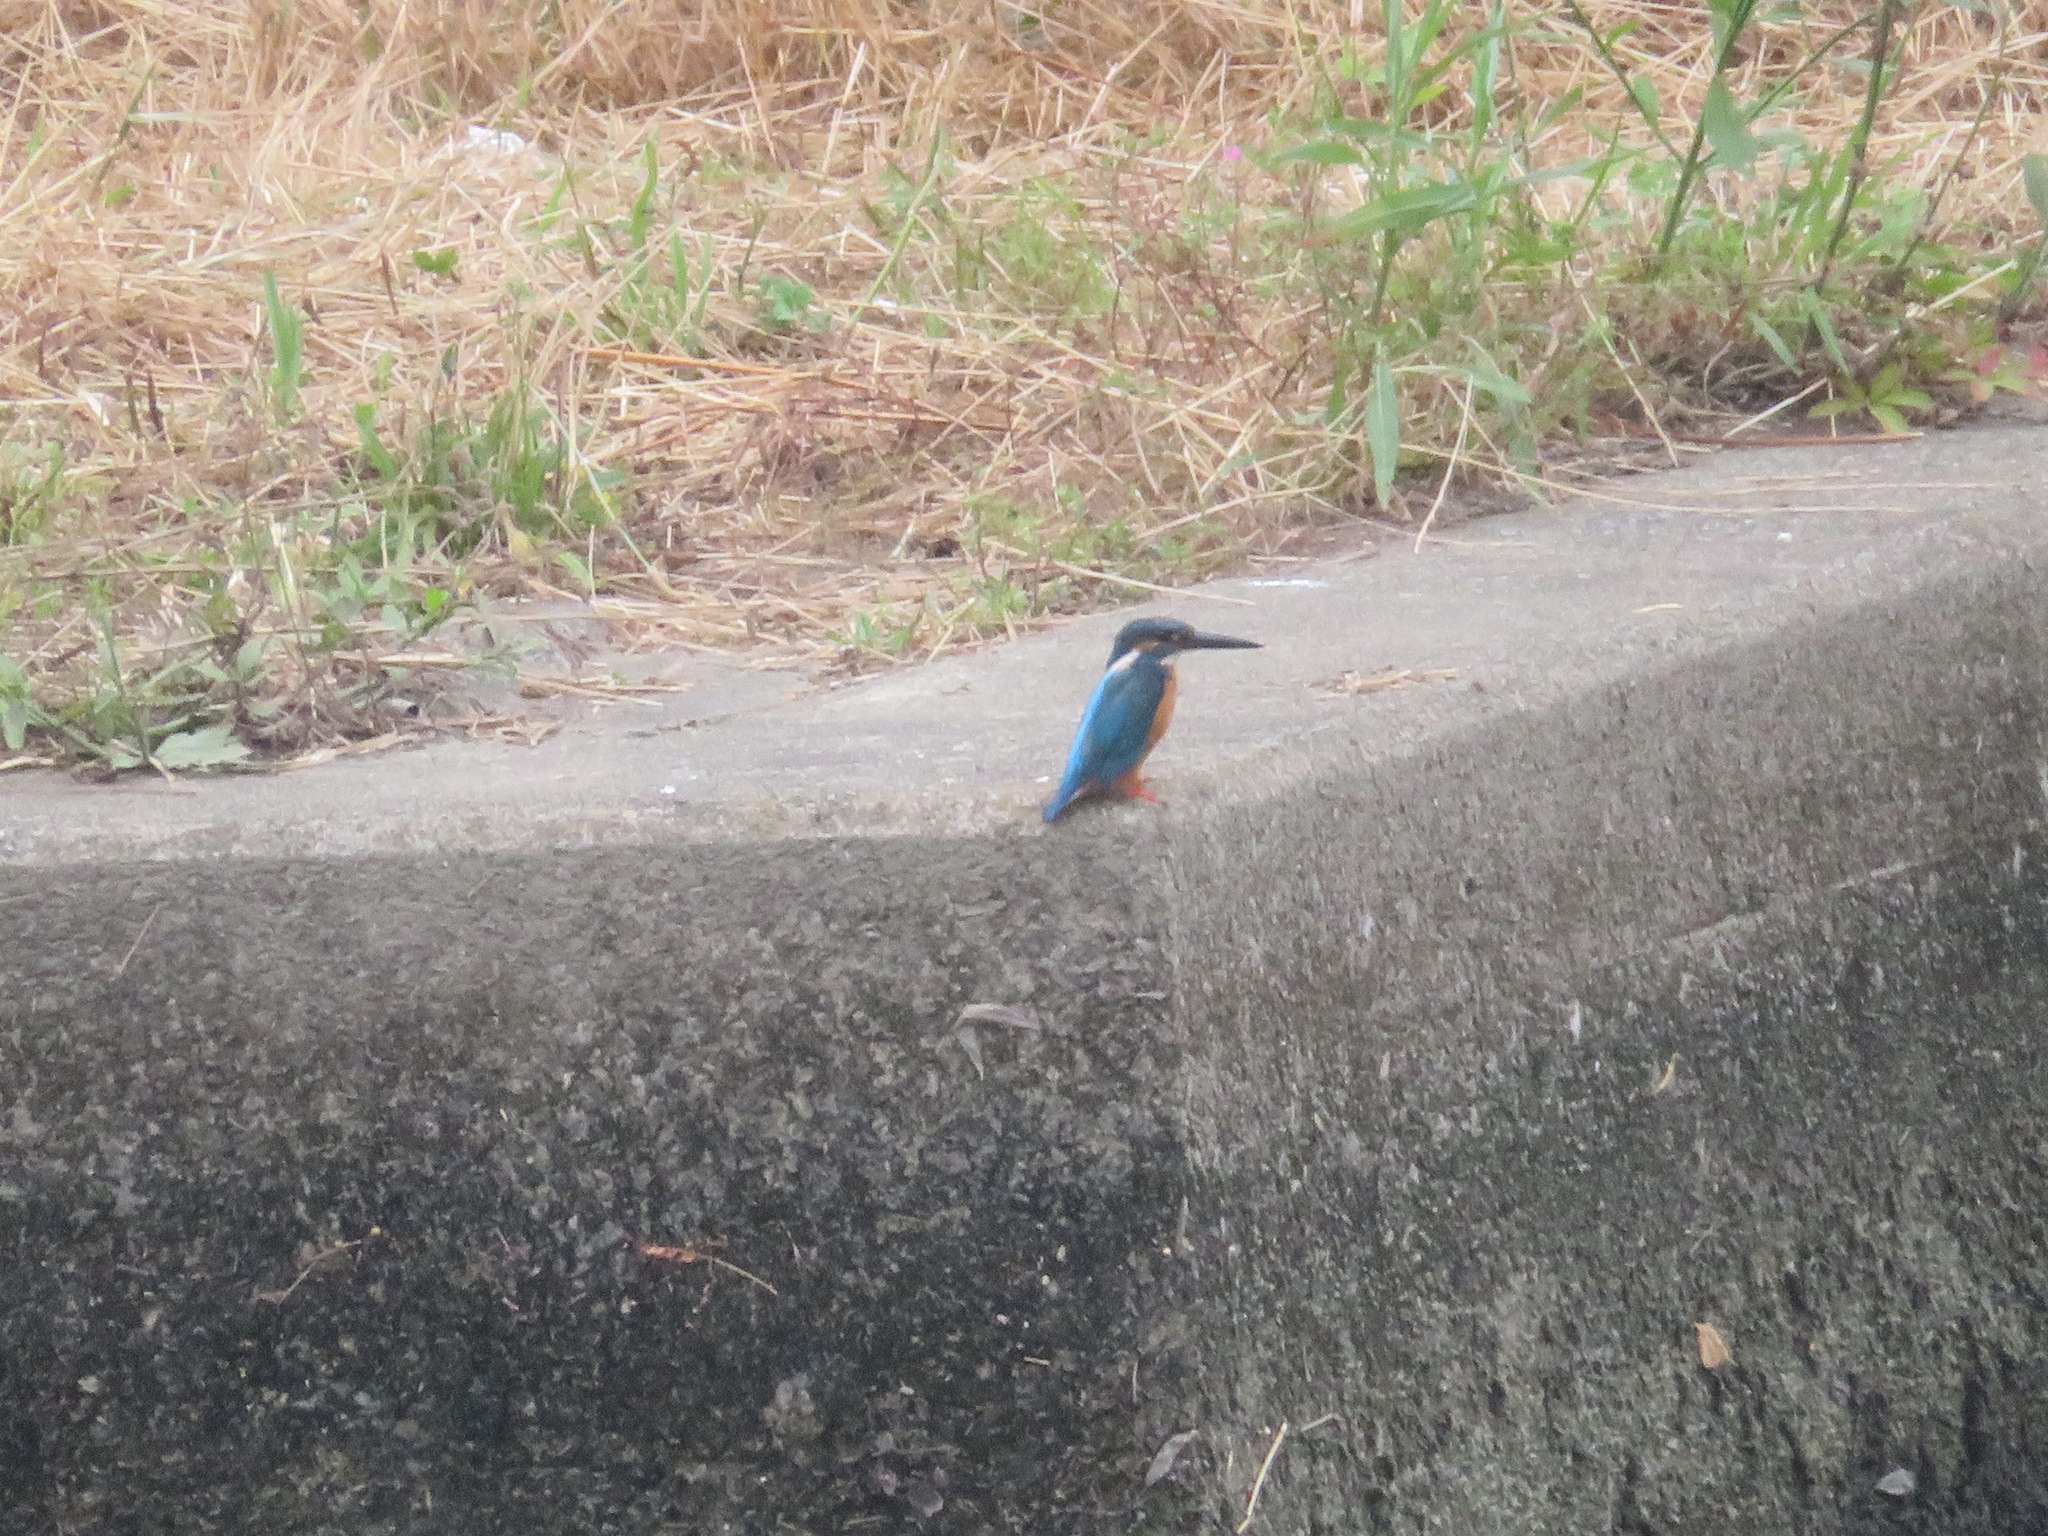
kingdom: Animalia
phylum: Chordata
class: Aves
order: Coraciiformes
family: Alcedinidae
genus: Alcedo
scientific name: Alcedo atthis
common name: Common kingfisher
